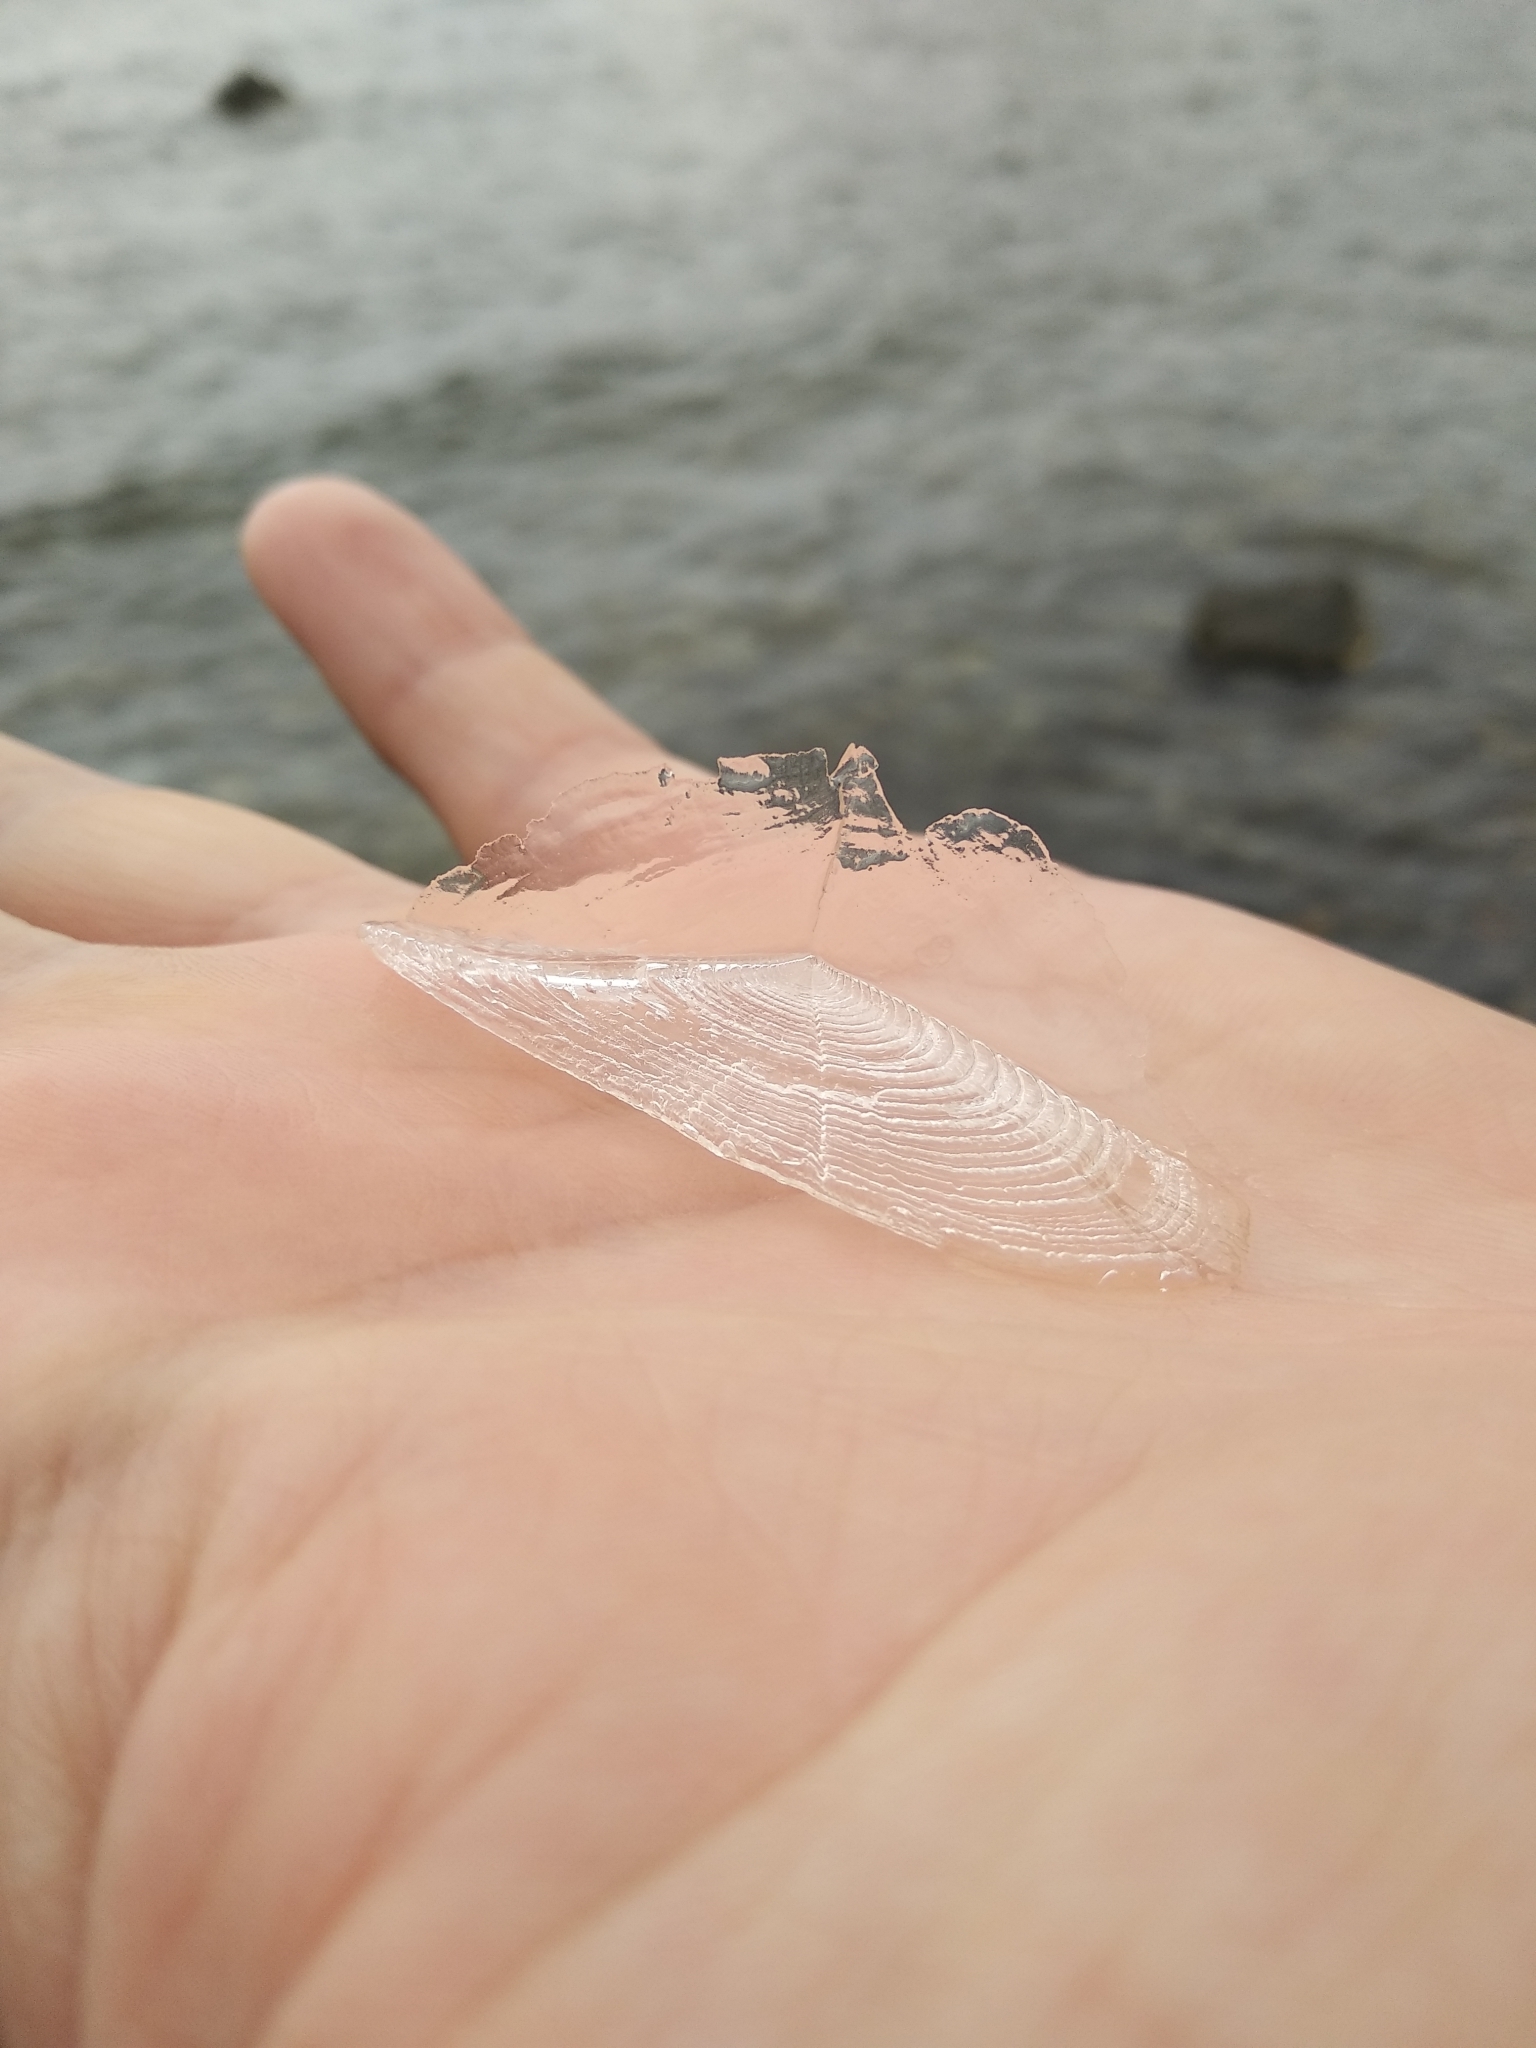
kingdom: Animalia
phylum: Cnidaria
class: Hydrozoa
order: Anthoathecata
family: Porpitidae
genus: Velella
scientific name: Velella velella
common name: By-the-wind-sailor
